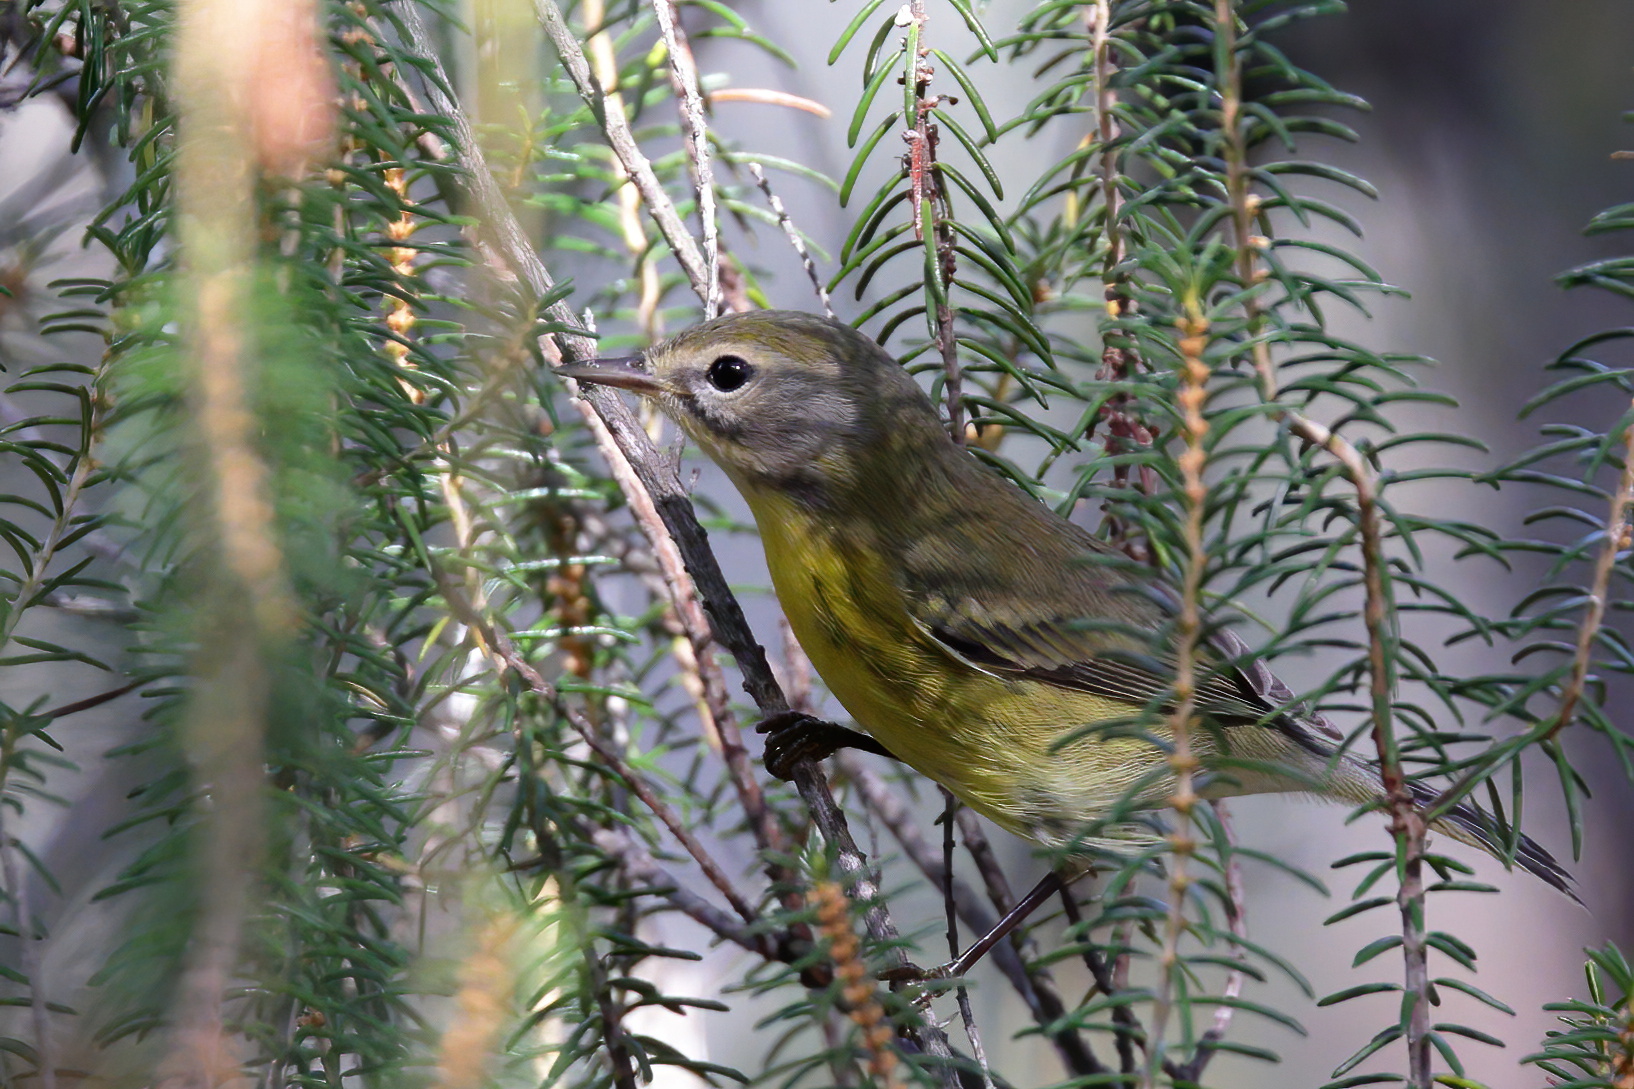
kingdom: Animalia
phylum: Chordata
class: Aves
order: Passeriformes
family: Parulidae
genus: Setophaga
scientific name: Setophaga discolor
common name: Prairie warbler
